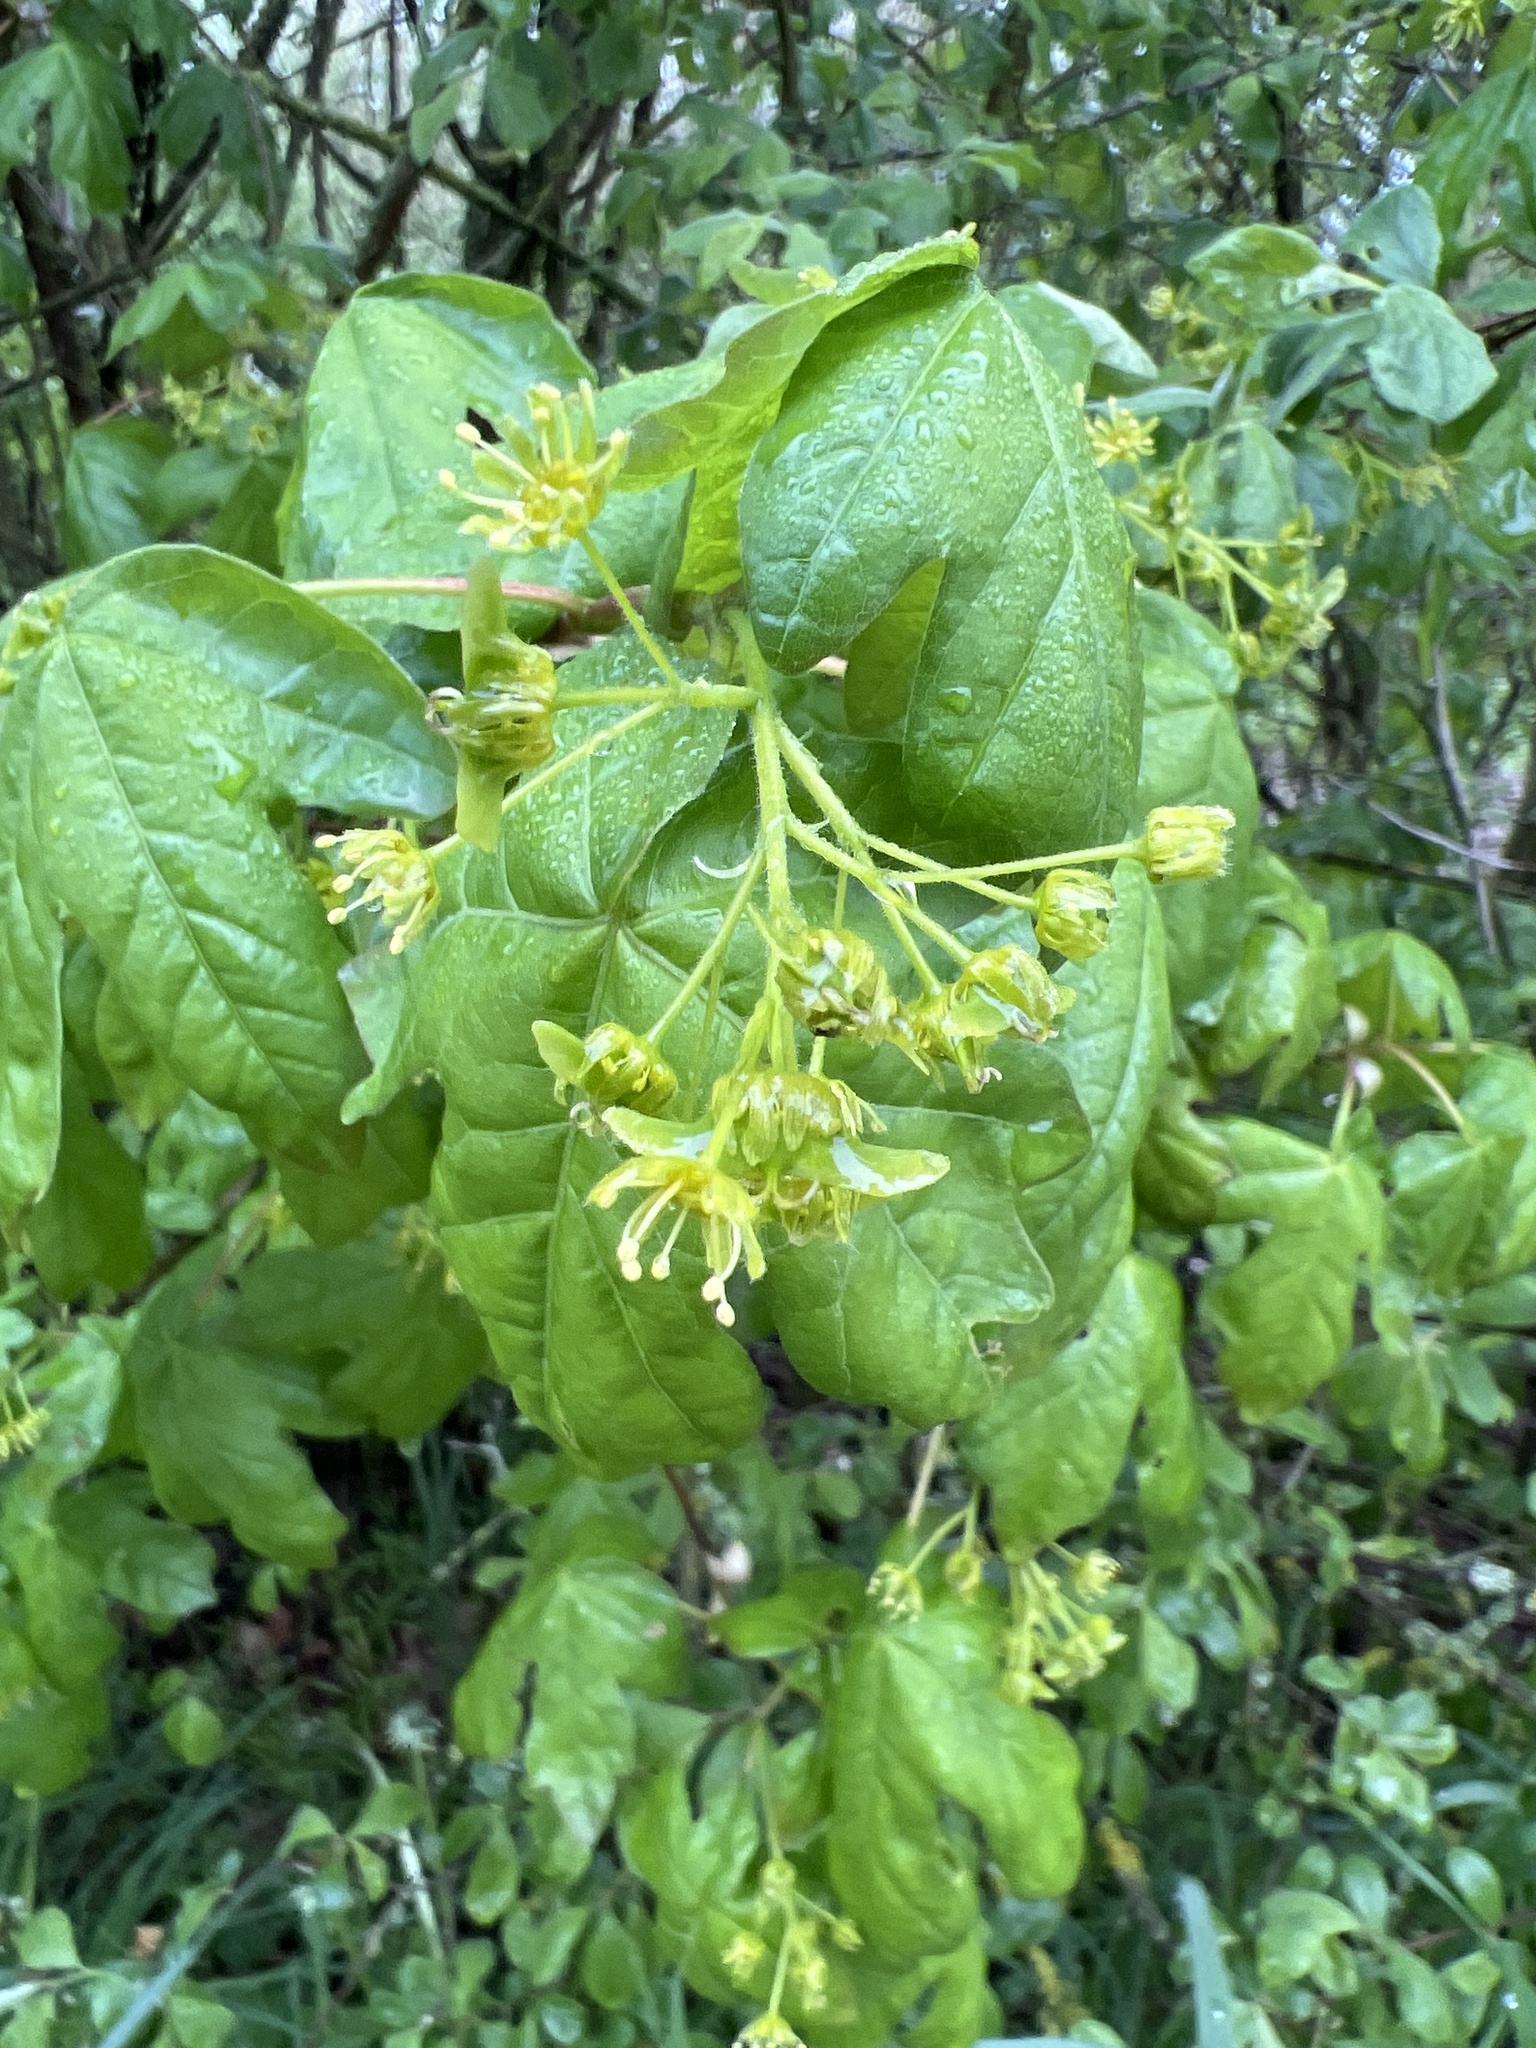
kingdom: Plantae
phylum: Tracheophyta
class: Magnoliopsida
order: Sapindales
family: Sapindaceae
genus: Acer
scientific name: Acer campestre
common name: Field maple
